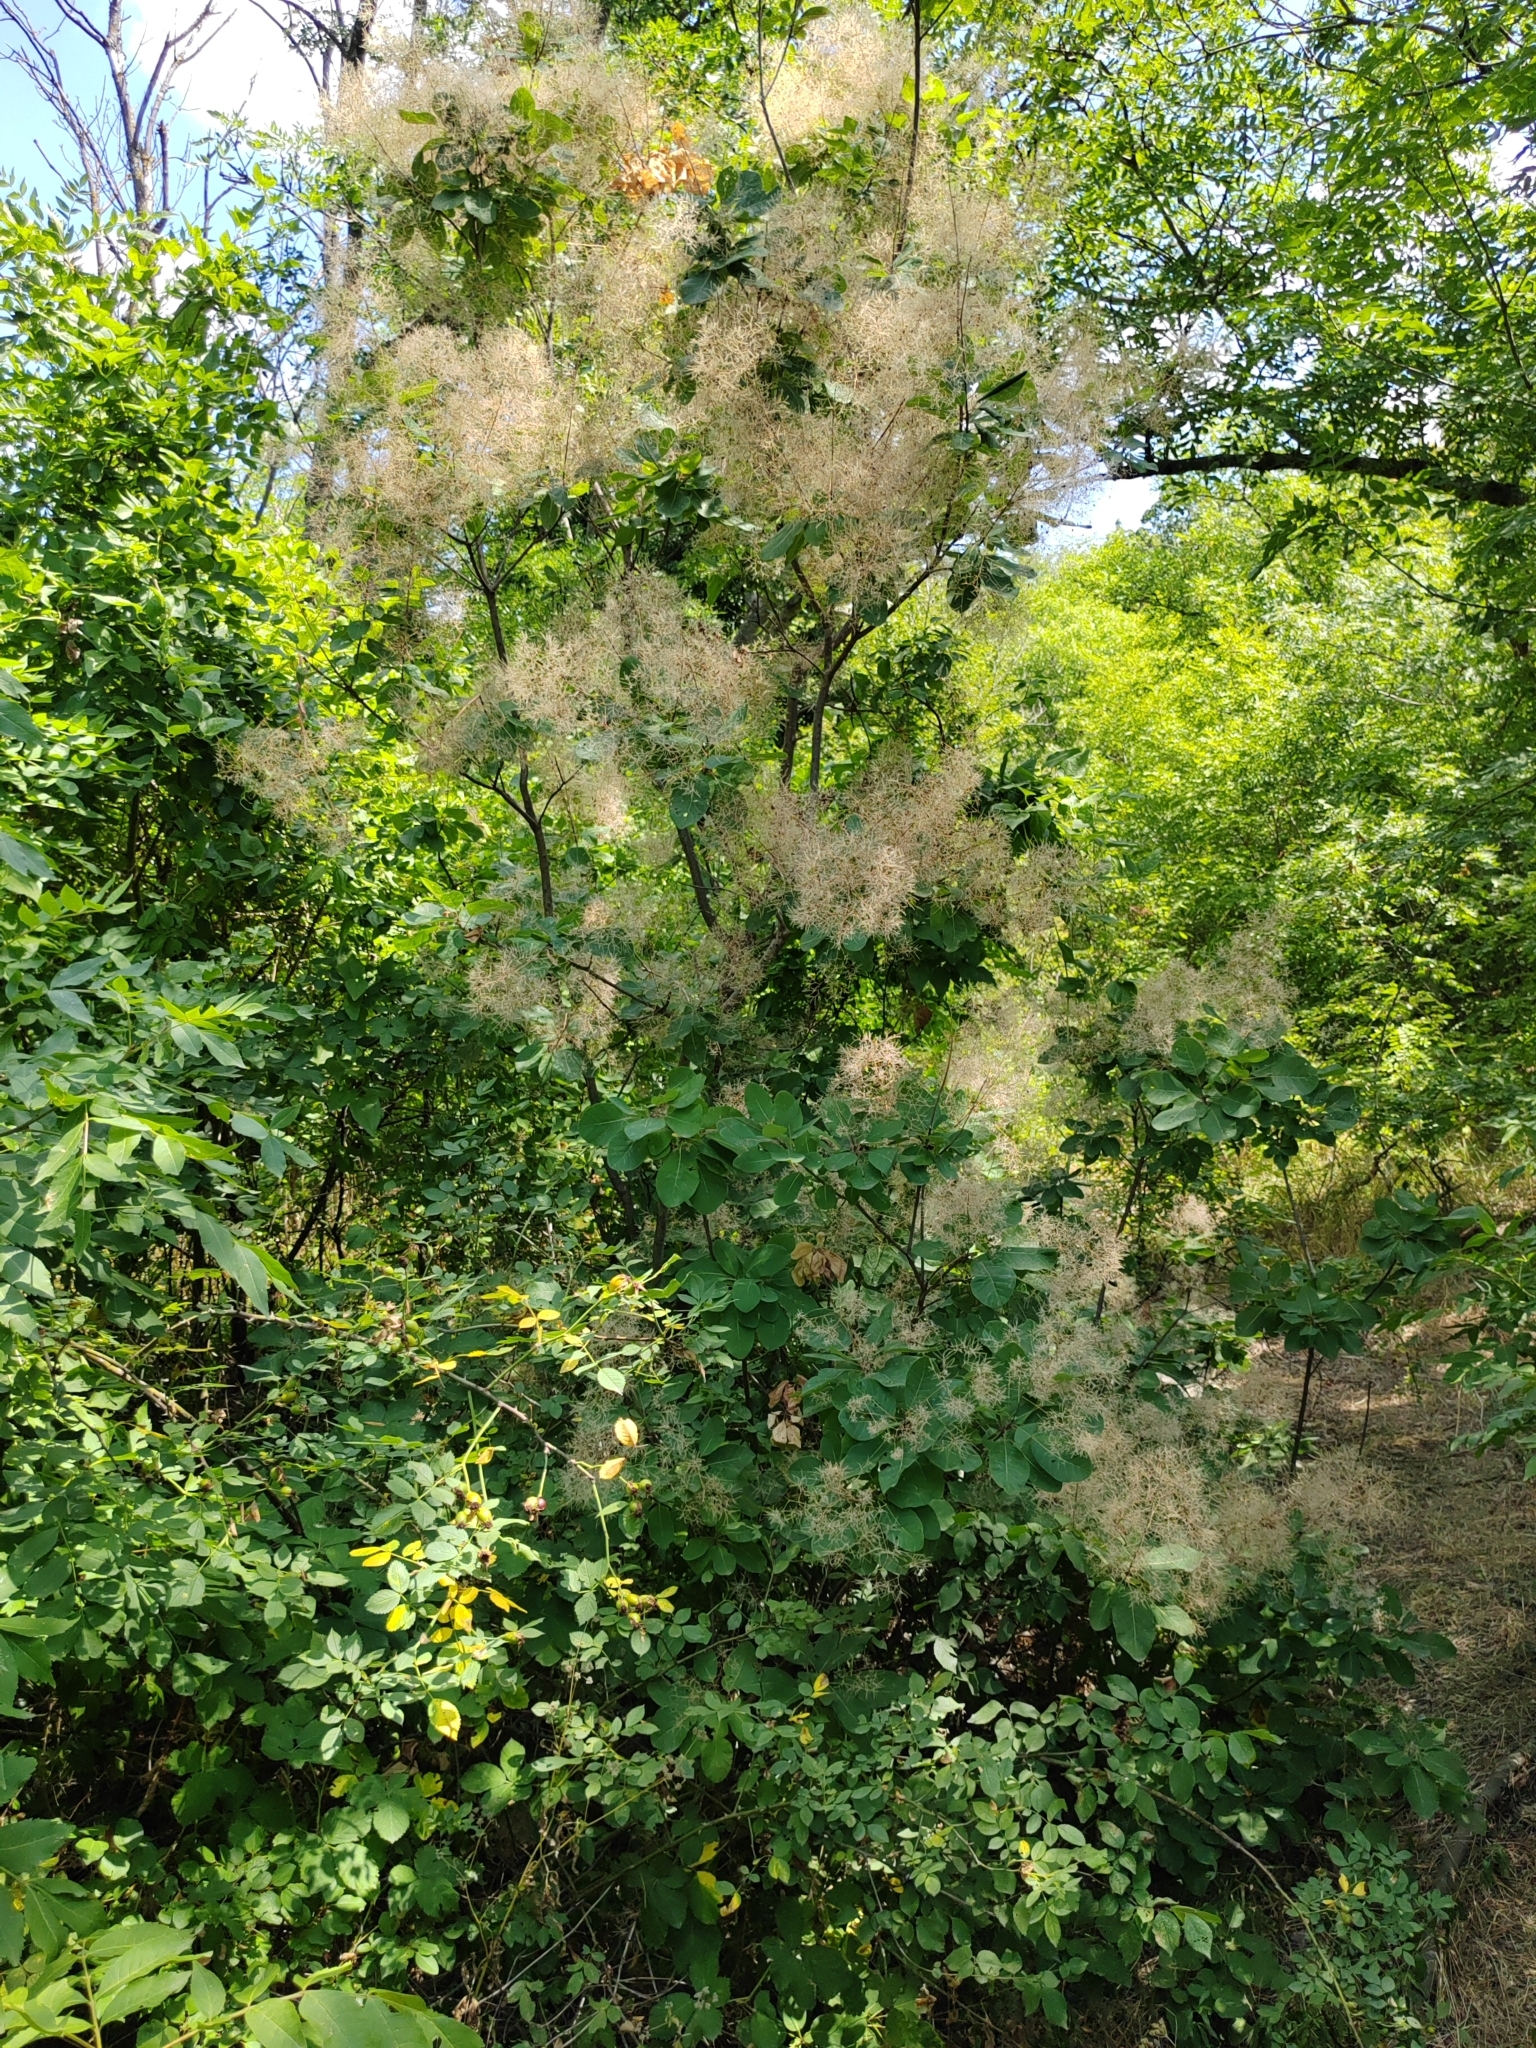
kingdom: Plantae
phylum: Tracheophyta
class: Magnoliopsida
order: Sapindales
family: Anacardiaceae
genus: Cotinus
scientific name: Cotinus coggygria
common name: Smoke-tree
